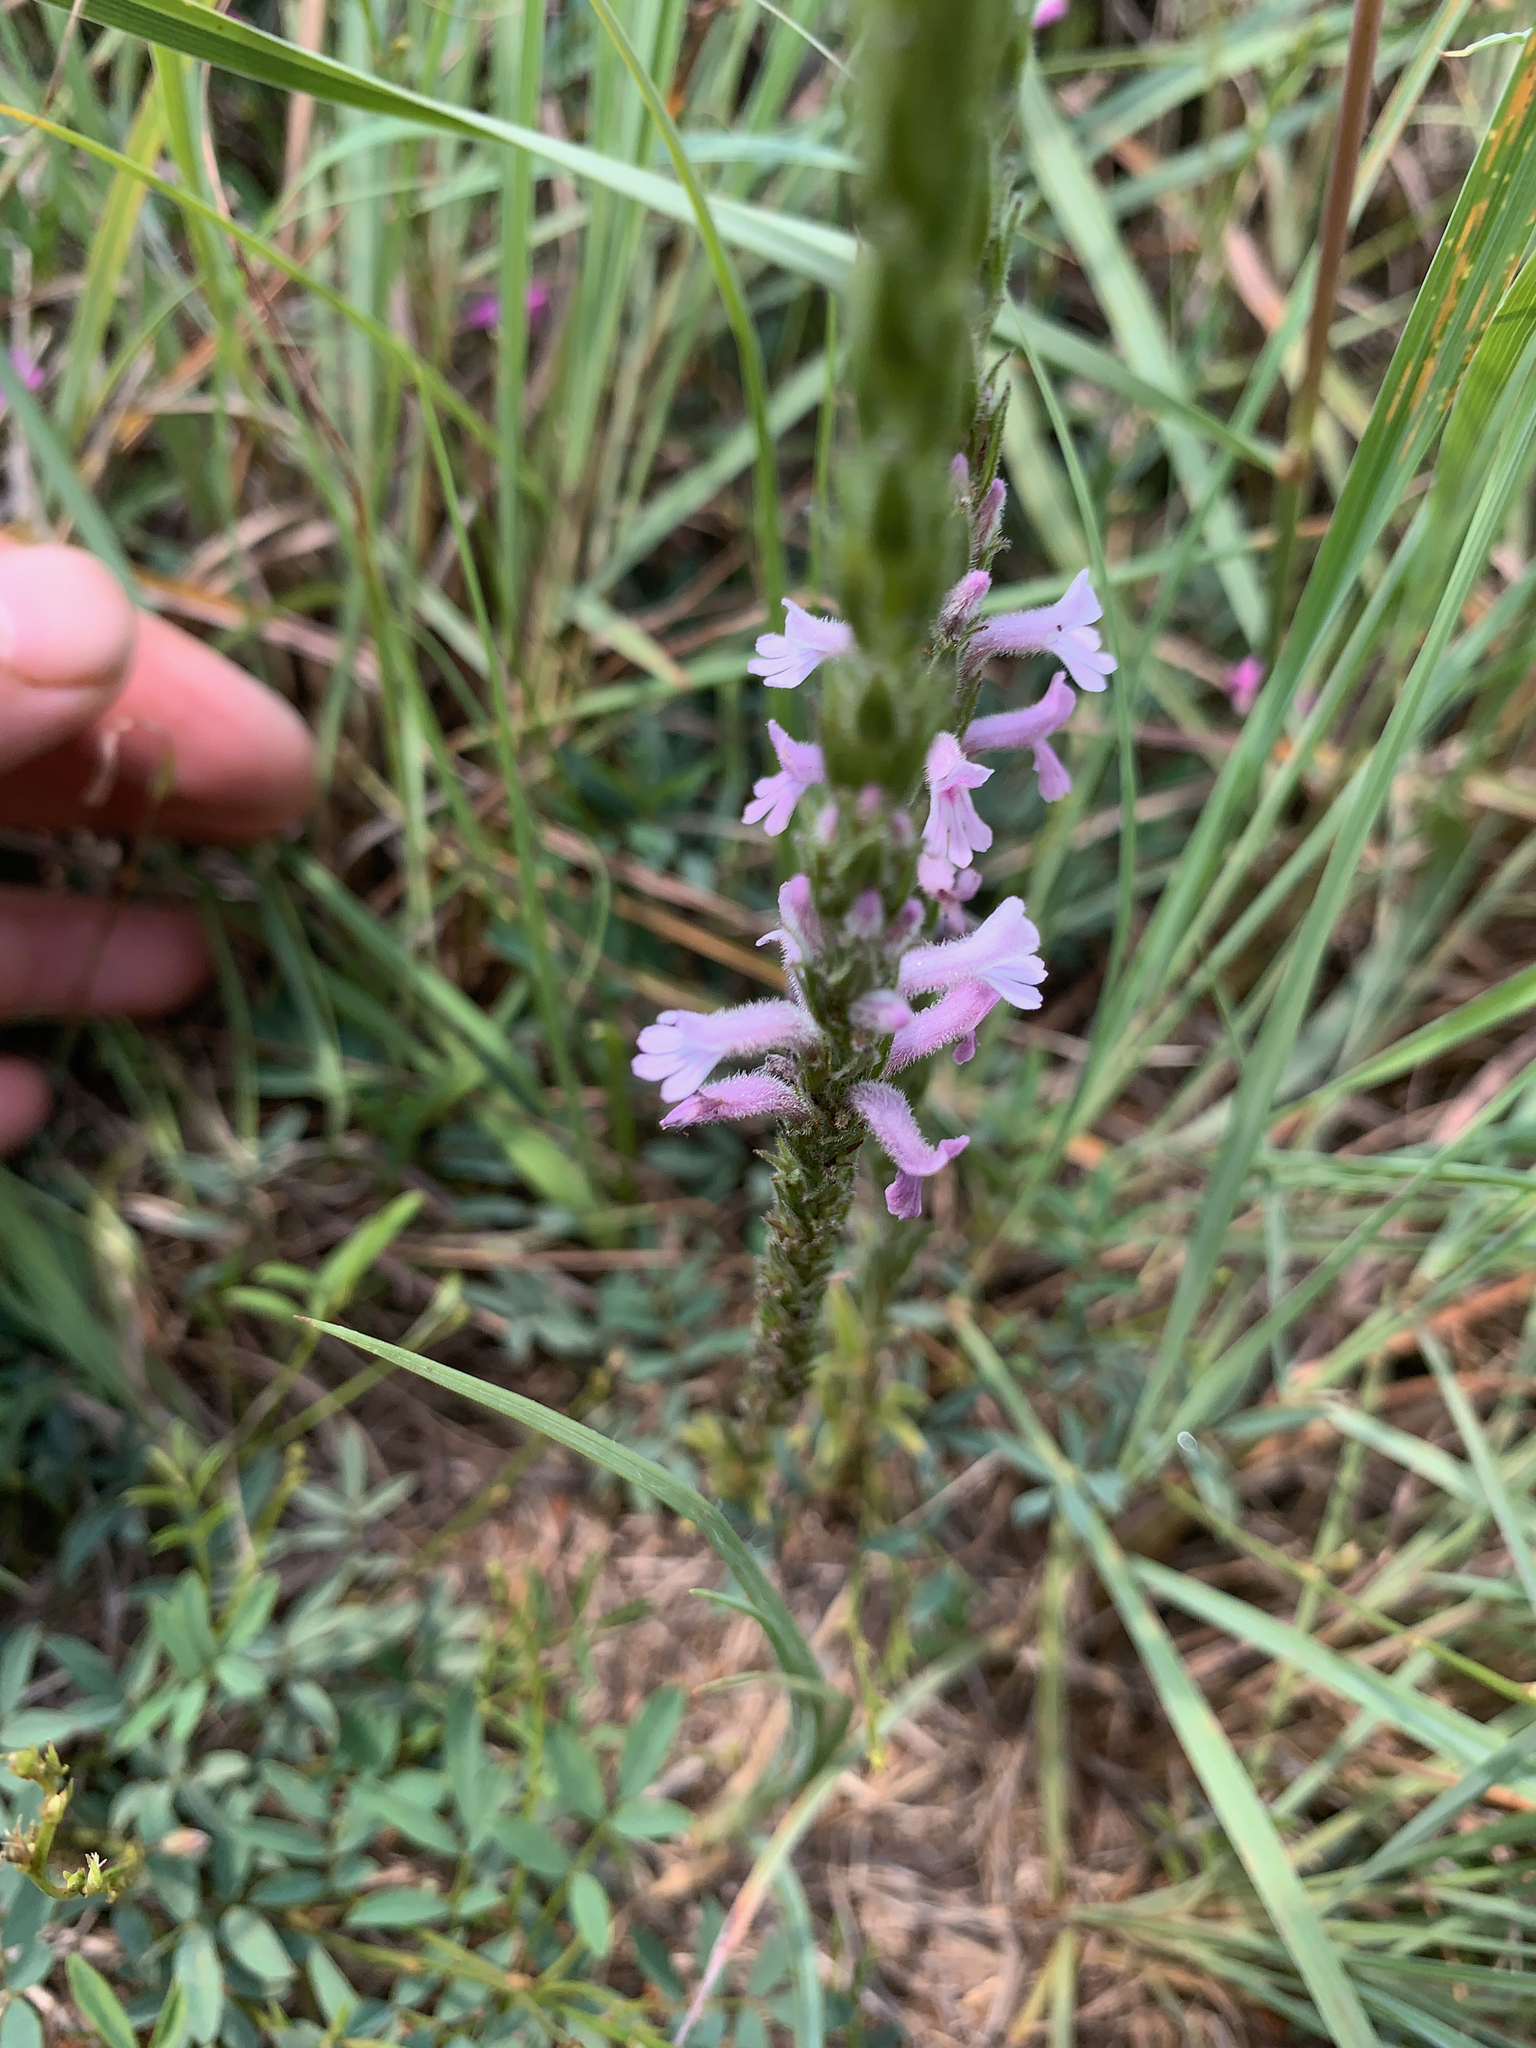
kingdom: Plantae
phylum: Tracheophyta
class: Magnoliopsida
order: Lamiales
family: Orobanchaceae
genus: Striga
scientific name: Striga bilabiata
